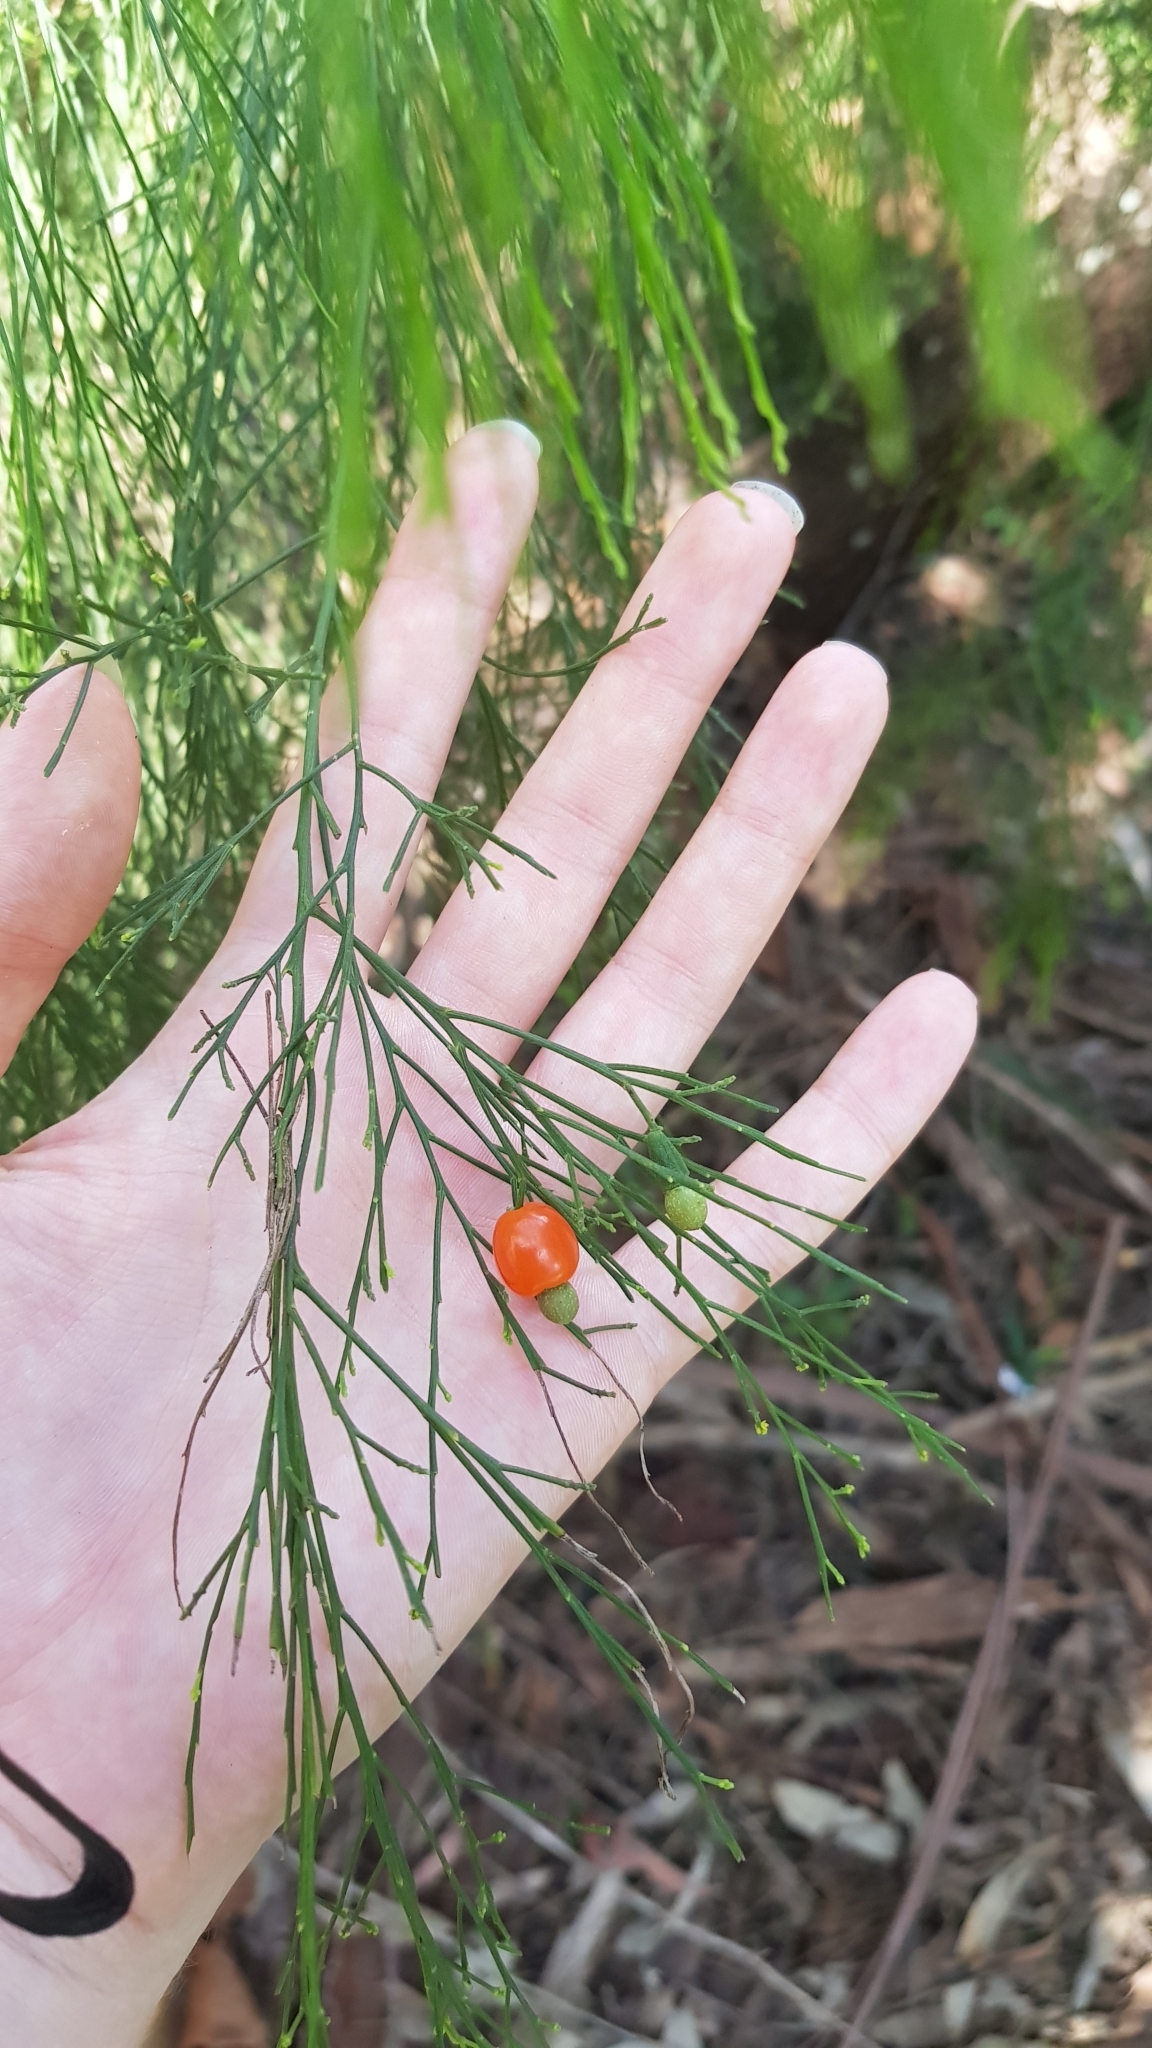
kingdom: Plantae
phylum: Tracheophyta
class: Magnoliopsida
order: Santalales
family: Santalaceae
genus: Exocarpos
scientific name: Exocarpos cupressiformis
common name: Cherry ballart
